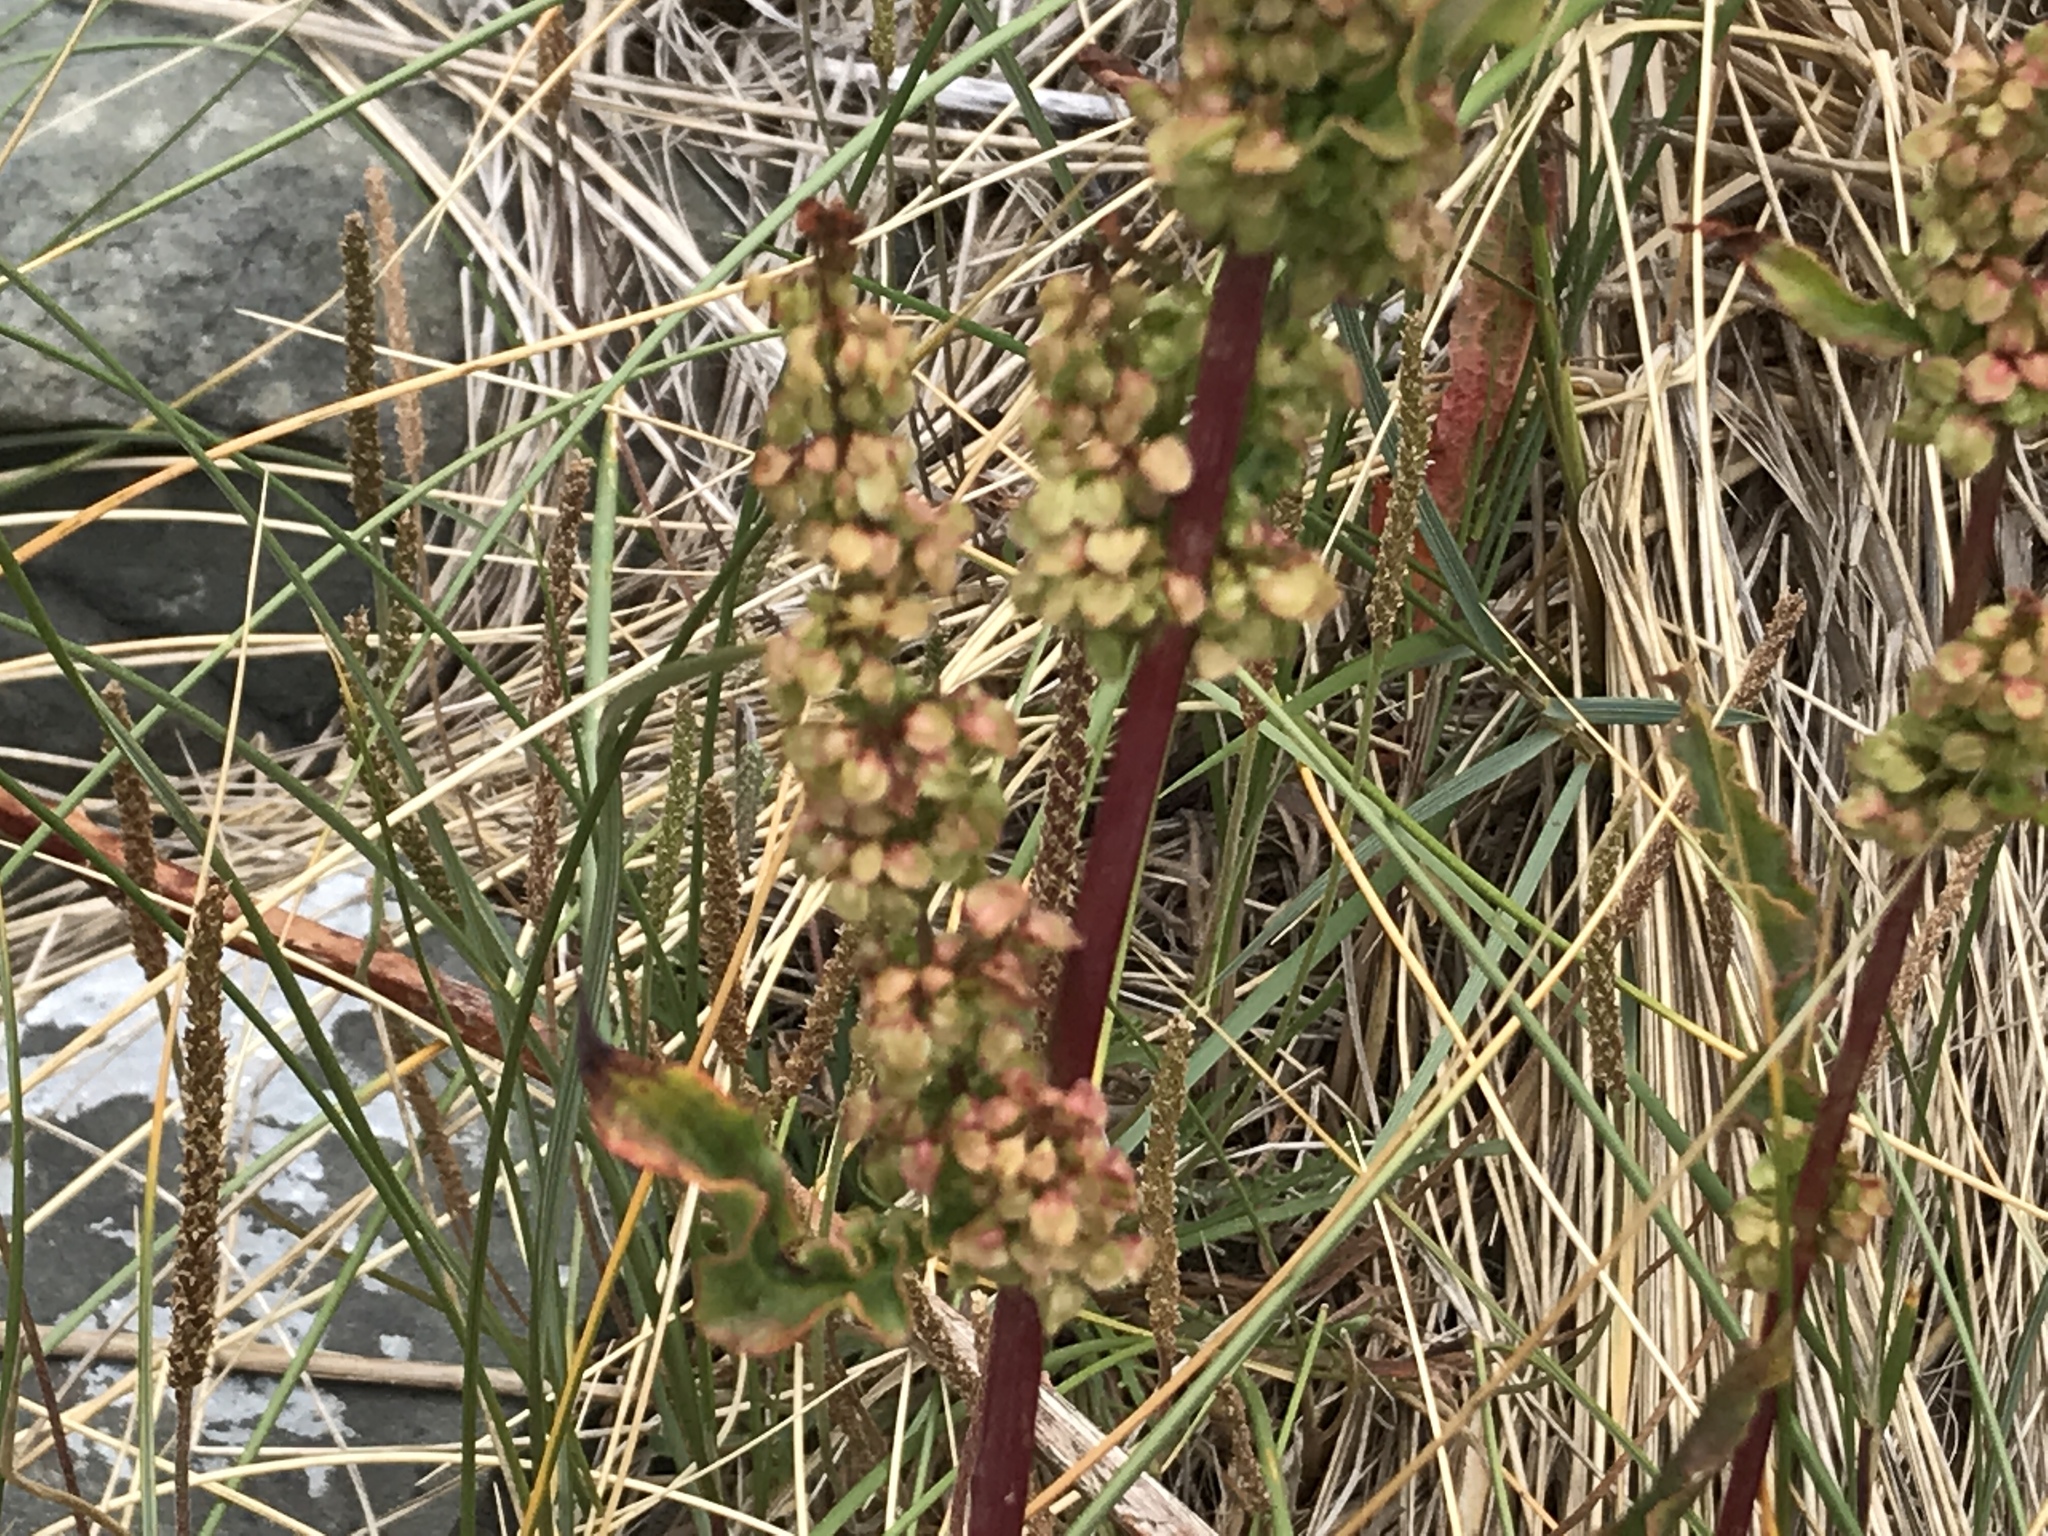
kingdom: Plantae
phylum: Tracheophyta
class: Magnoliopsida
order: Caryophyllales
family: Polygonaceae
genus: Rumex
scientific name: Rumex crispus
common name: Curled dock
